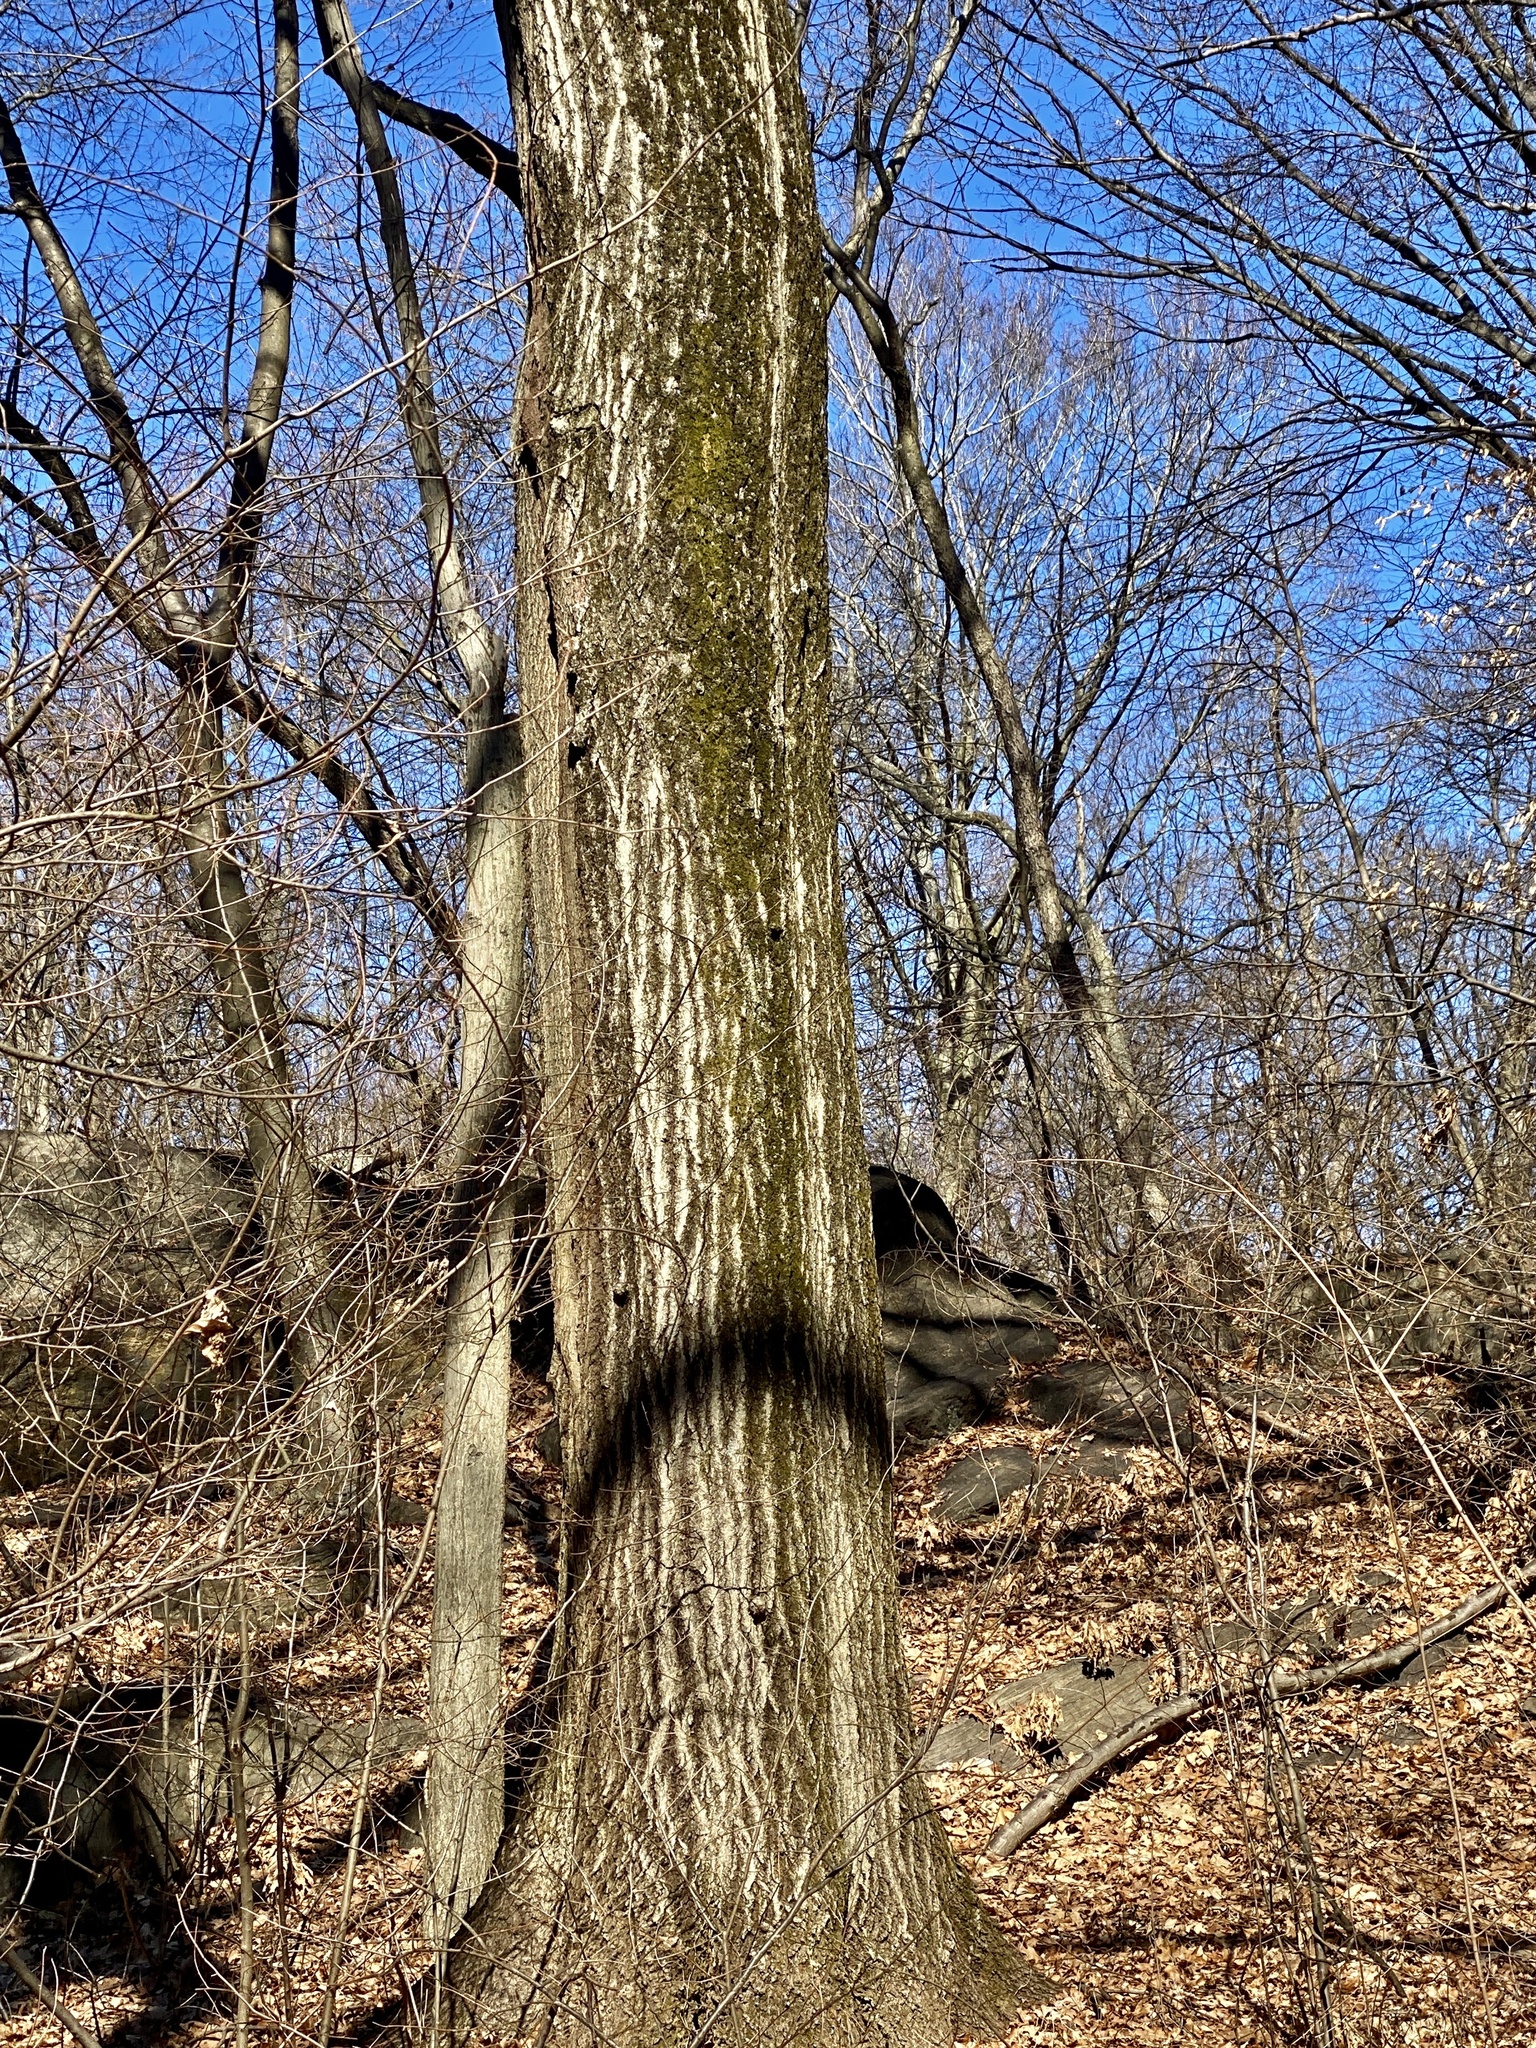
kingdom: Plantae
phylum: Tracheophyta
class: Magnoliopsida
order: Fagales
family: Fagaceae
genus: Quercus
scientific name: Quercus rubra
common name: Red oak
